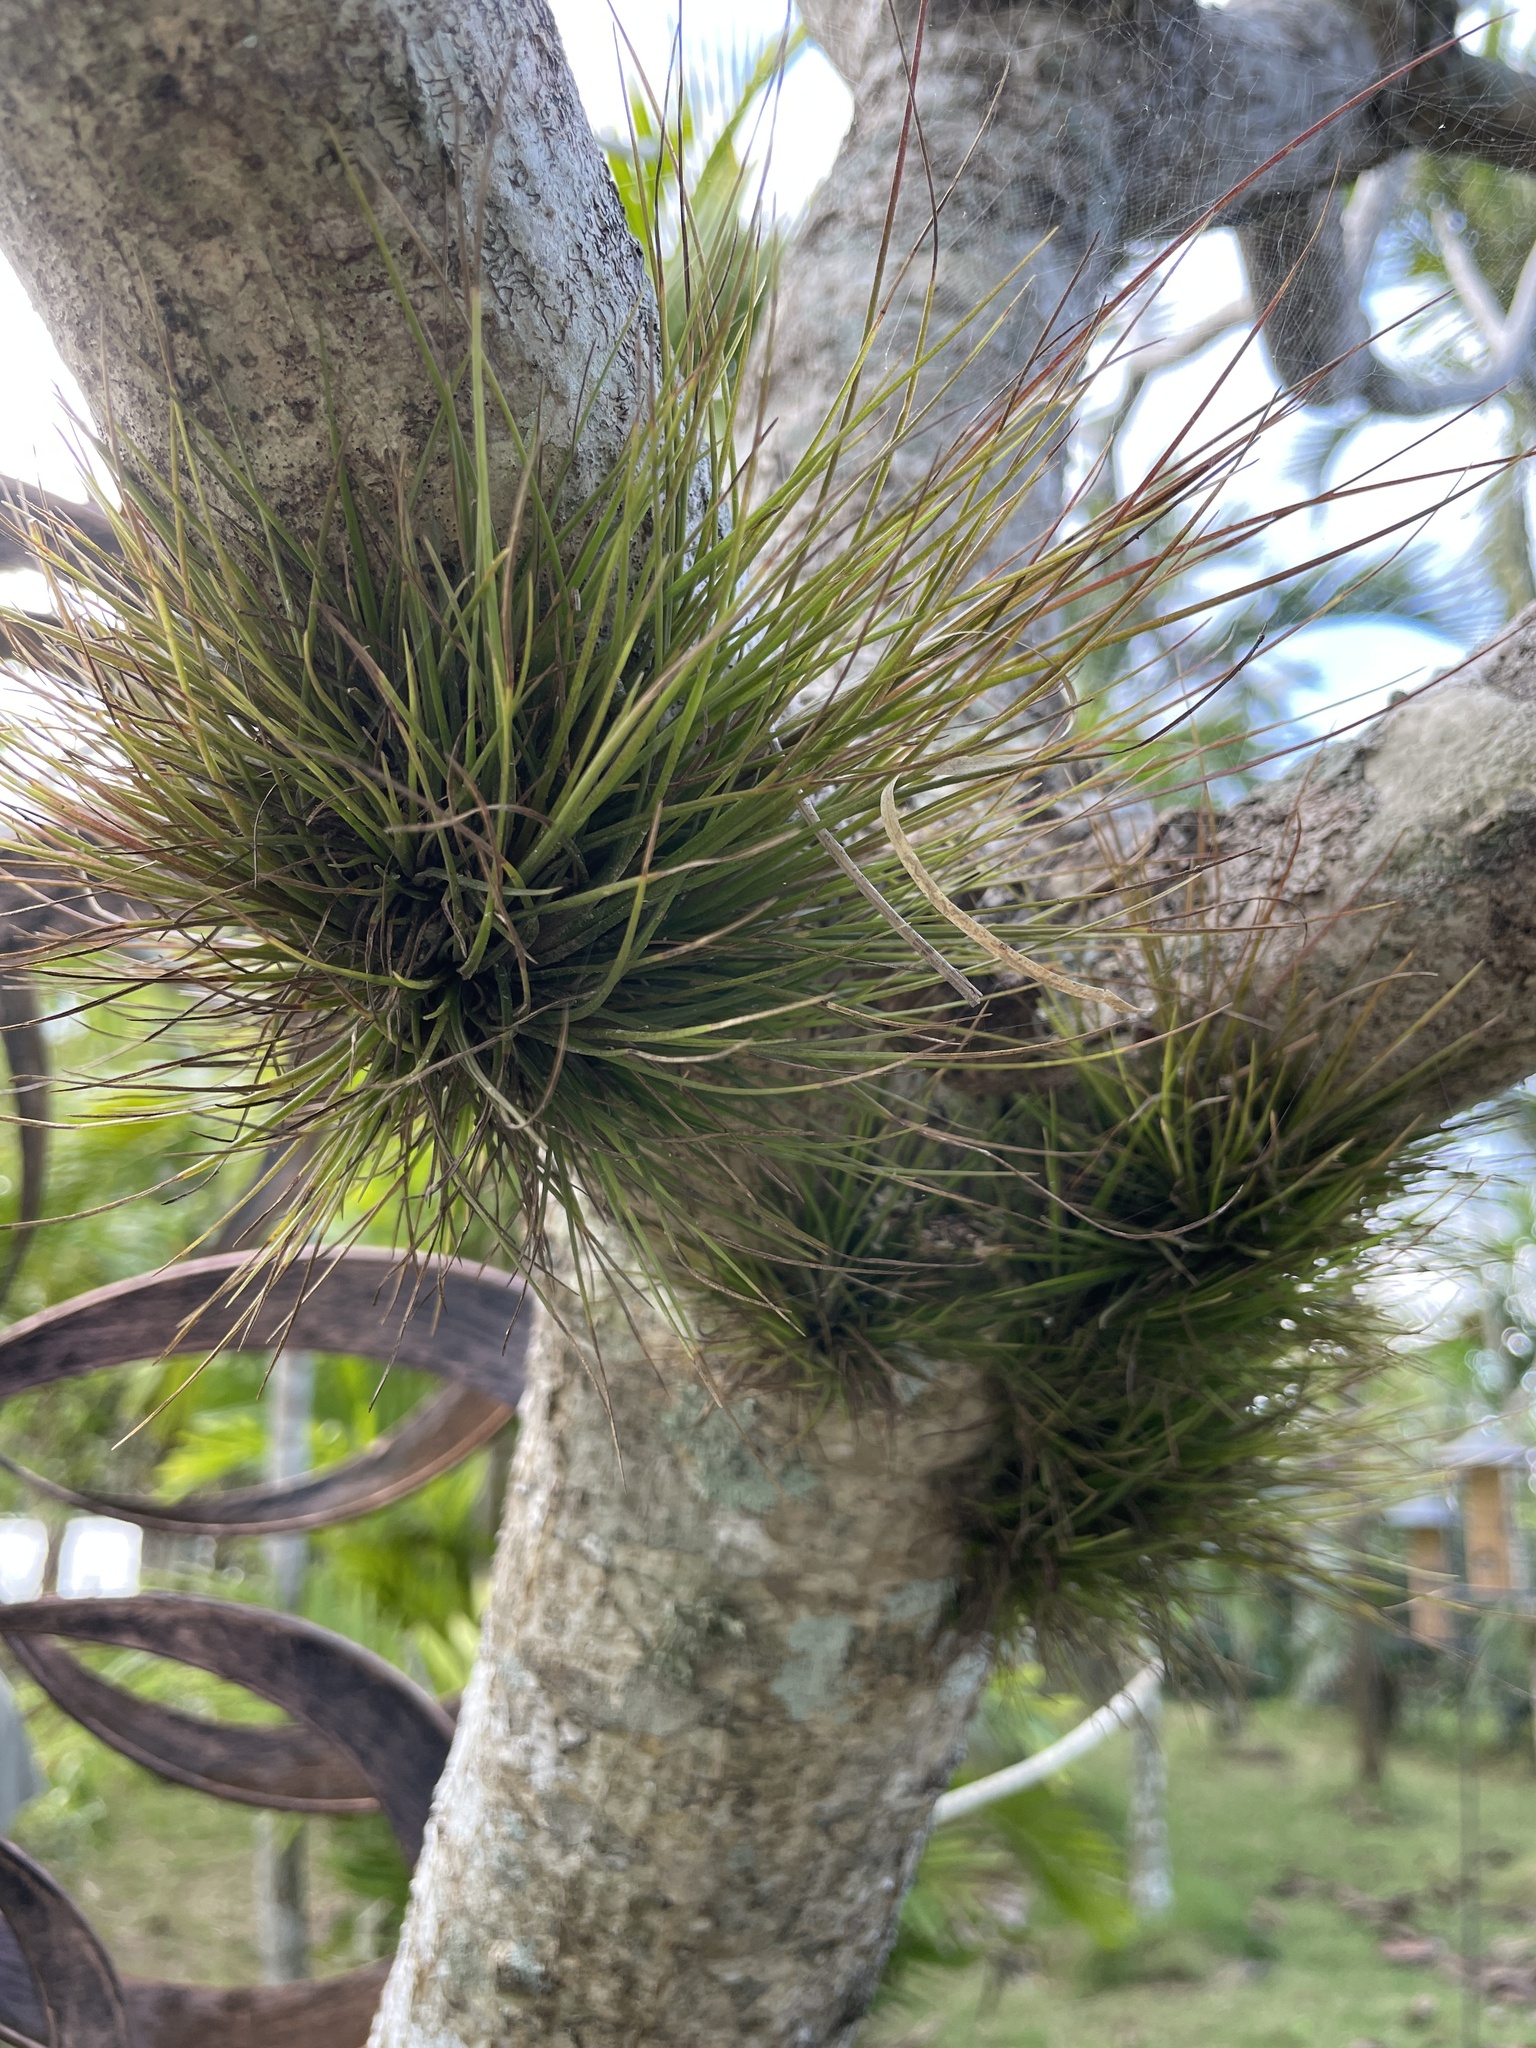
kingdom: Plantae
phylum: Tracheophyta
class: Liliopsida
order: Poales
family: Bromeliaceae
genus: Tillandsia
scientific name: Tillandsia setacea
